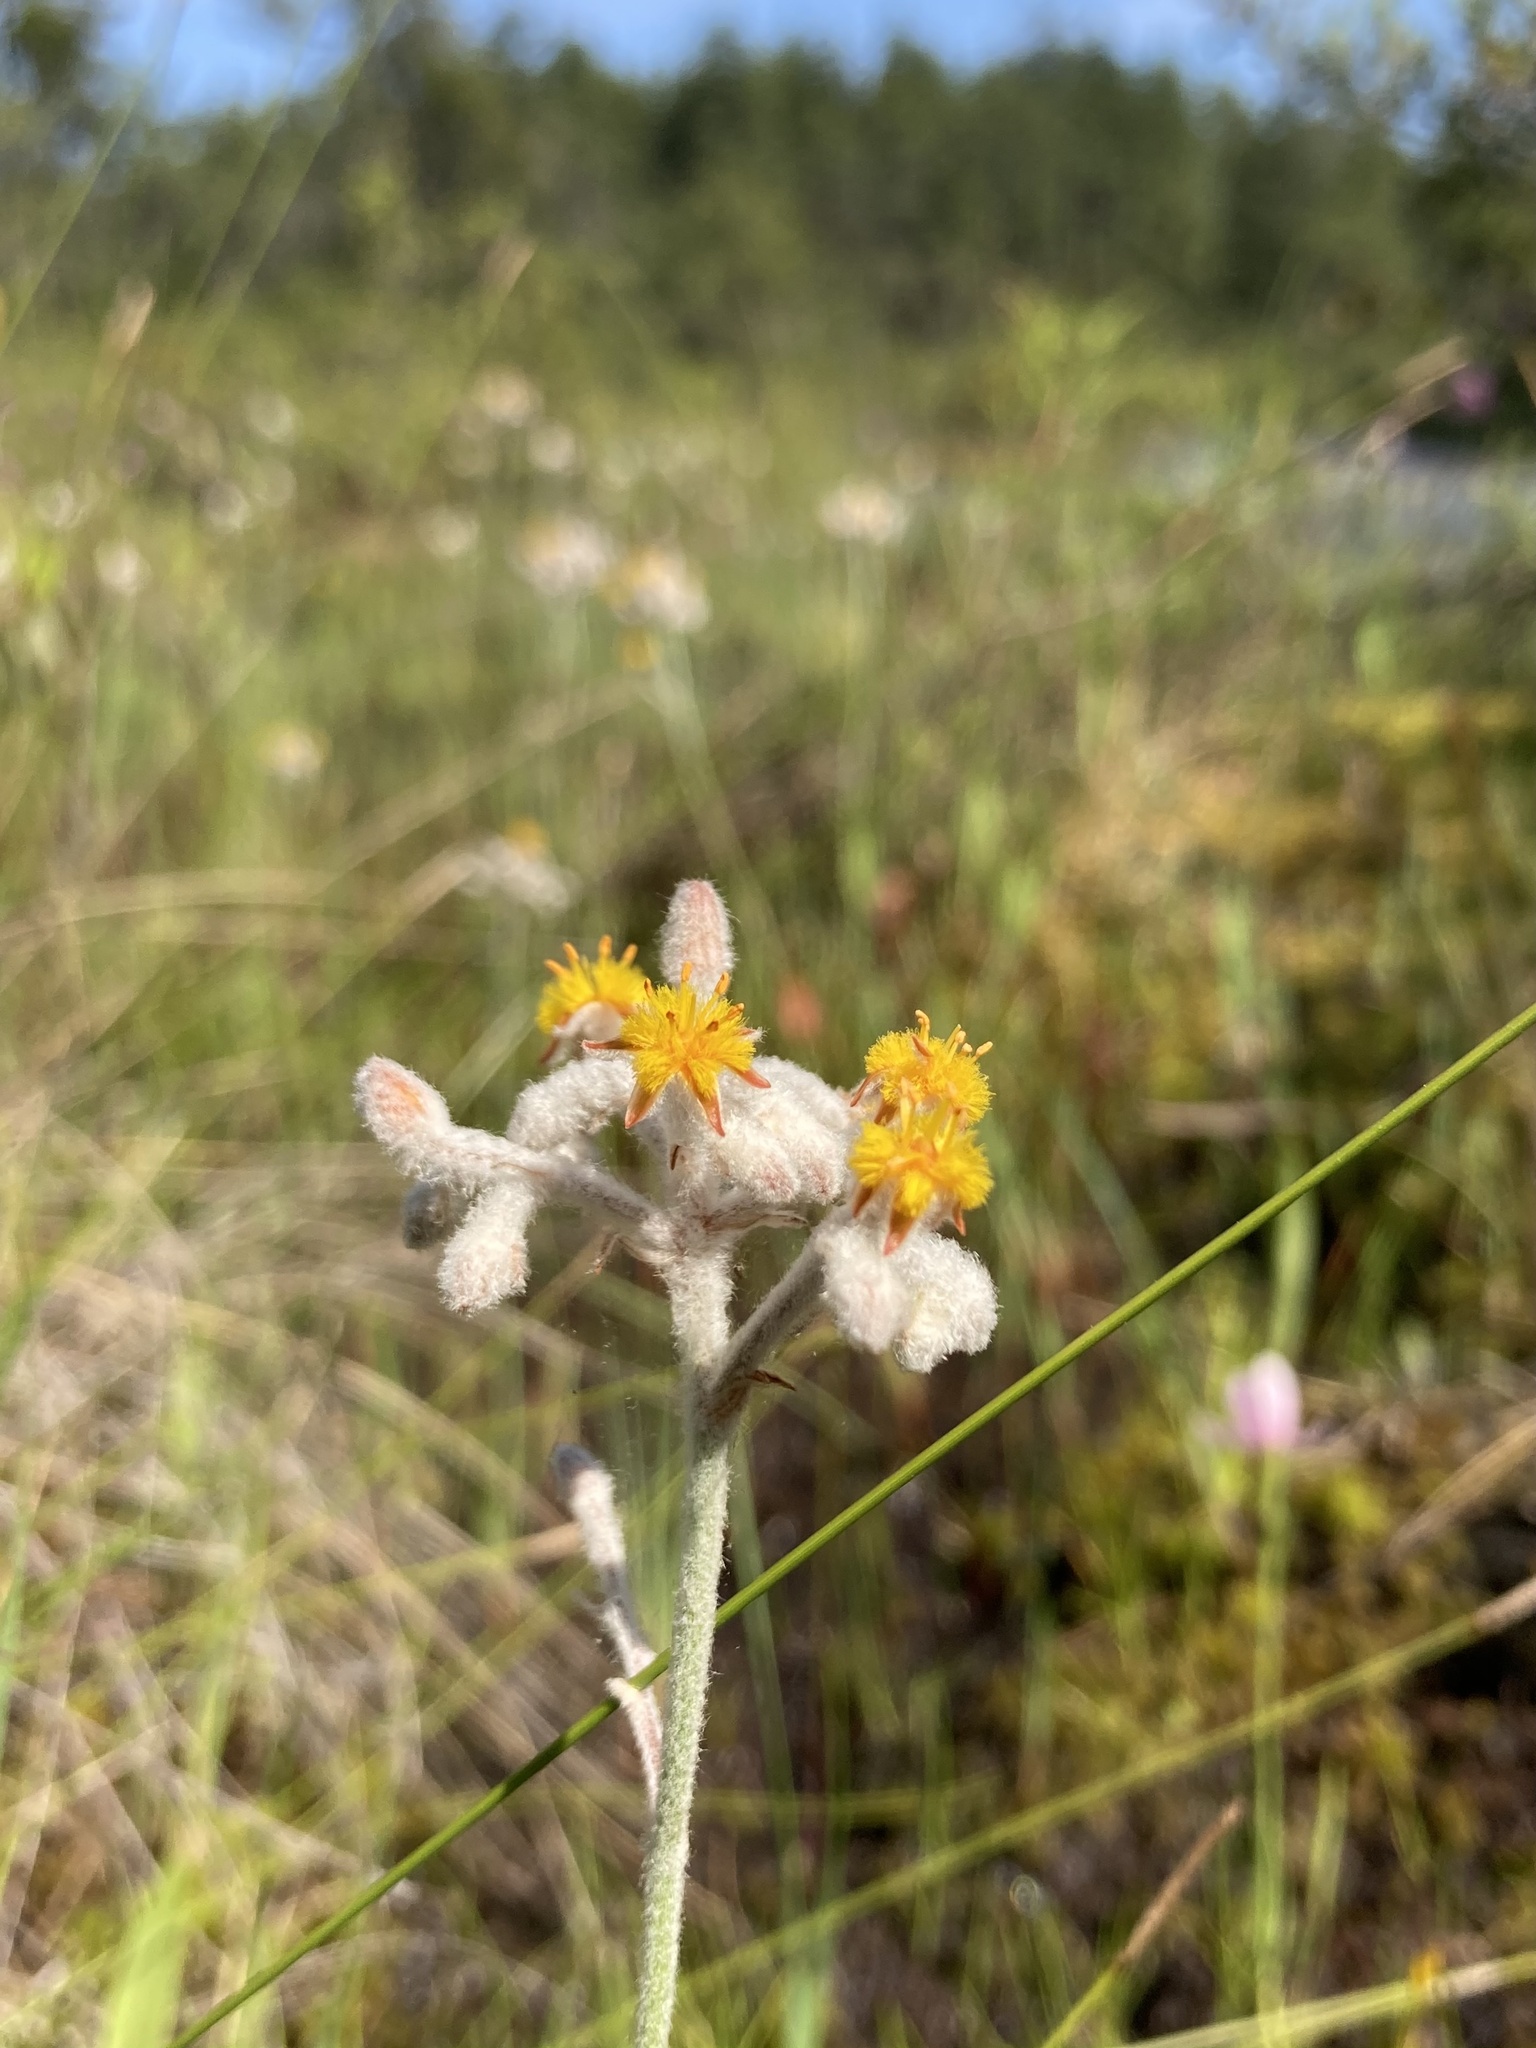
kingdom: Plantae
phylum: Tracheophyta
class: Liliopsida
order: Dioscoreales
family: Nartheciaceae
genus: Lophiola
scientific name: Lophiola aurea
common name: Golden-crest
